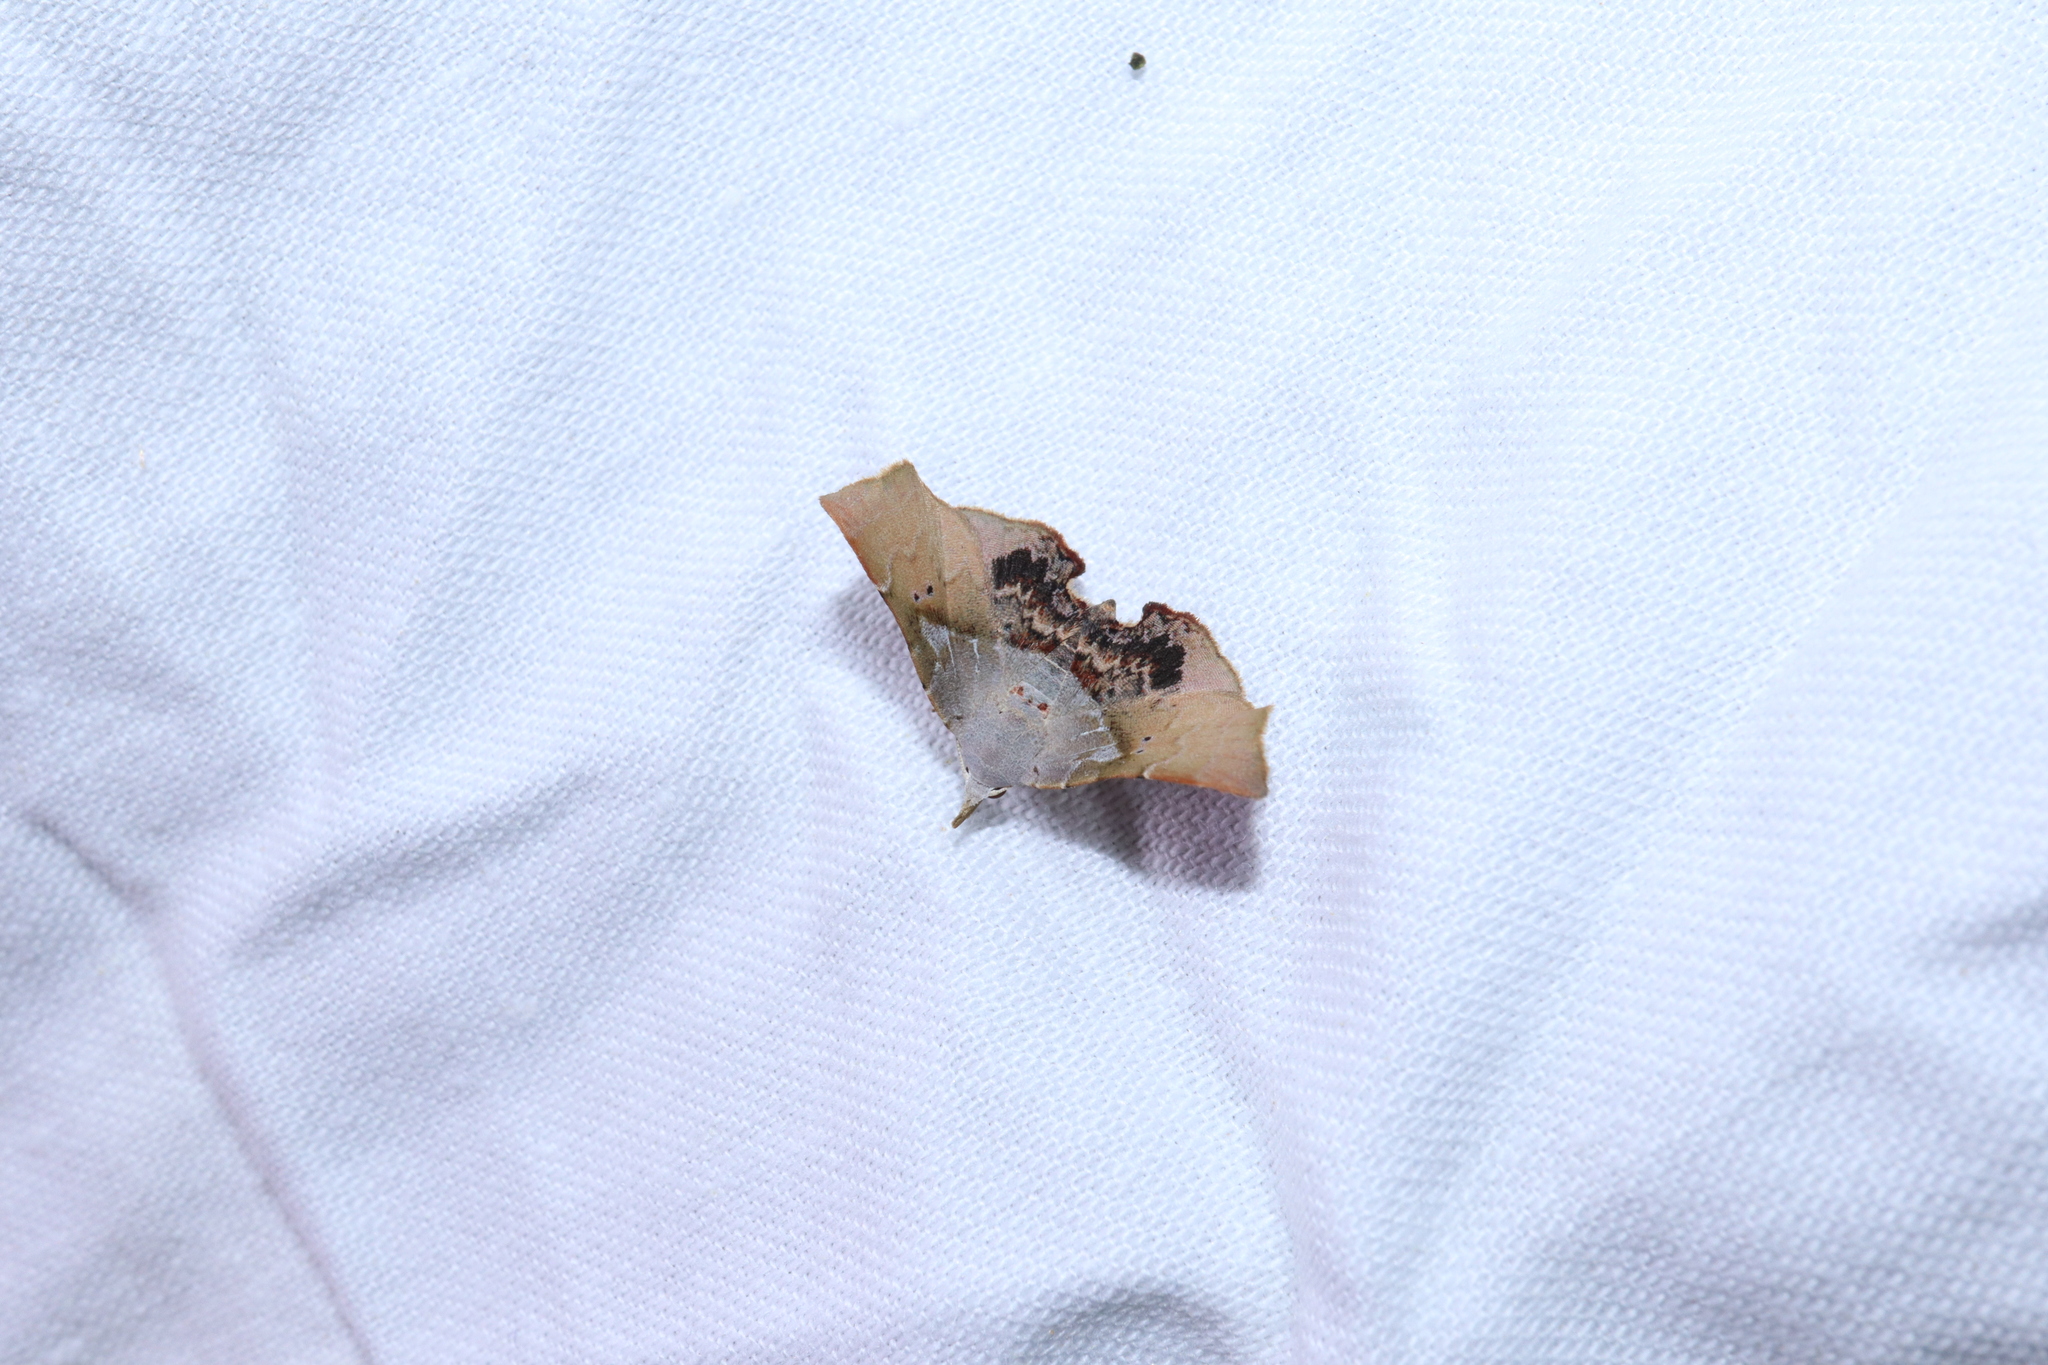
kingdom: Animalia
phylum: Arthropoda
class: Insecta
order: Lepidoptera
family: Erebidae
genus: Esthlodora
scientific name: Esthlodora versicolor
